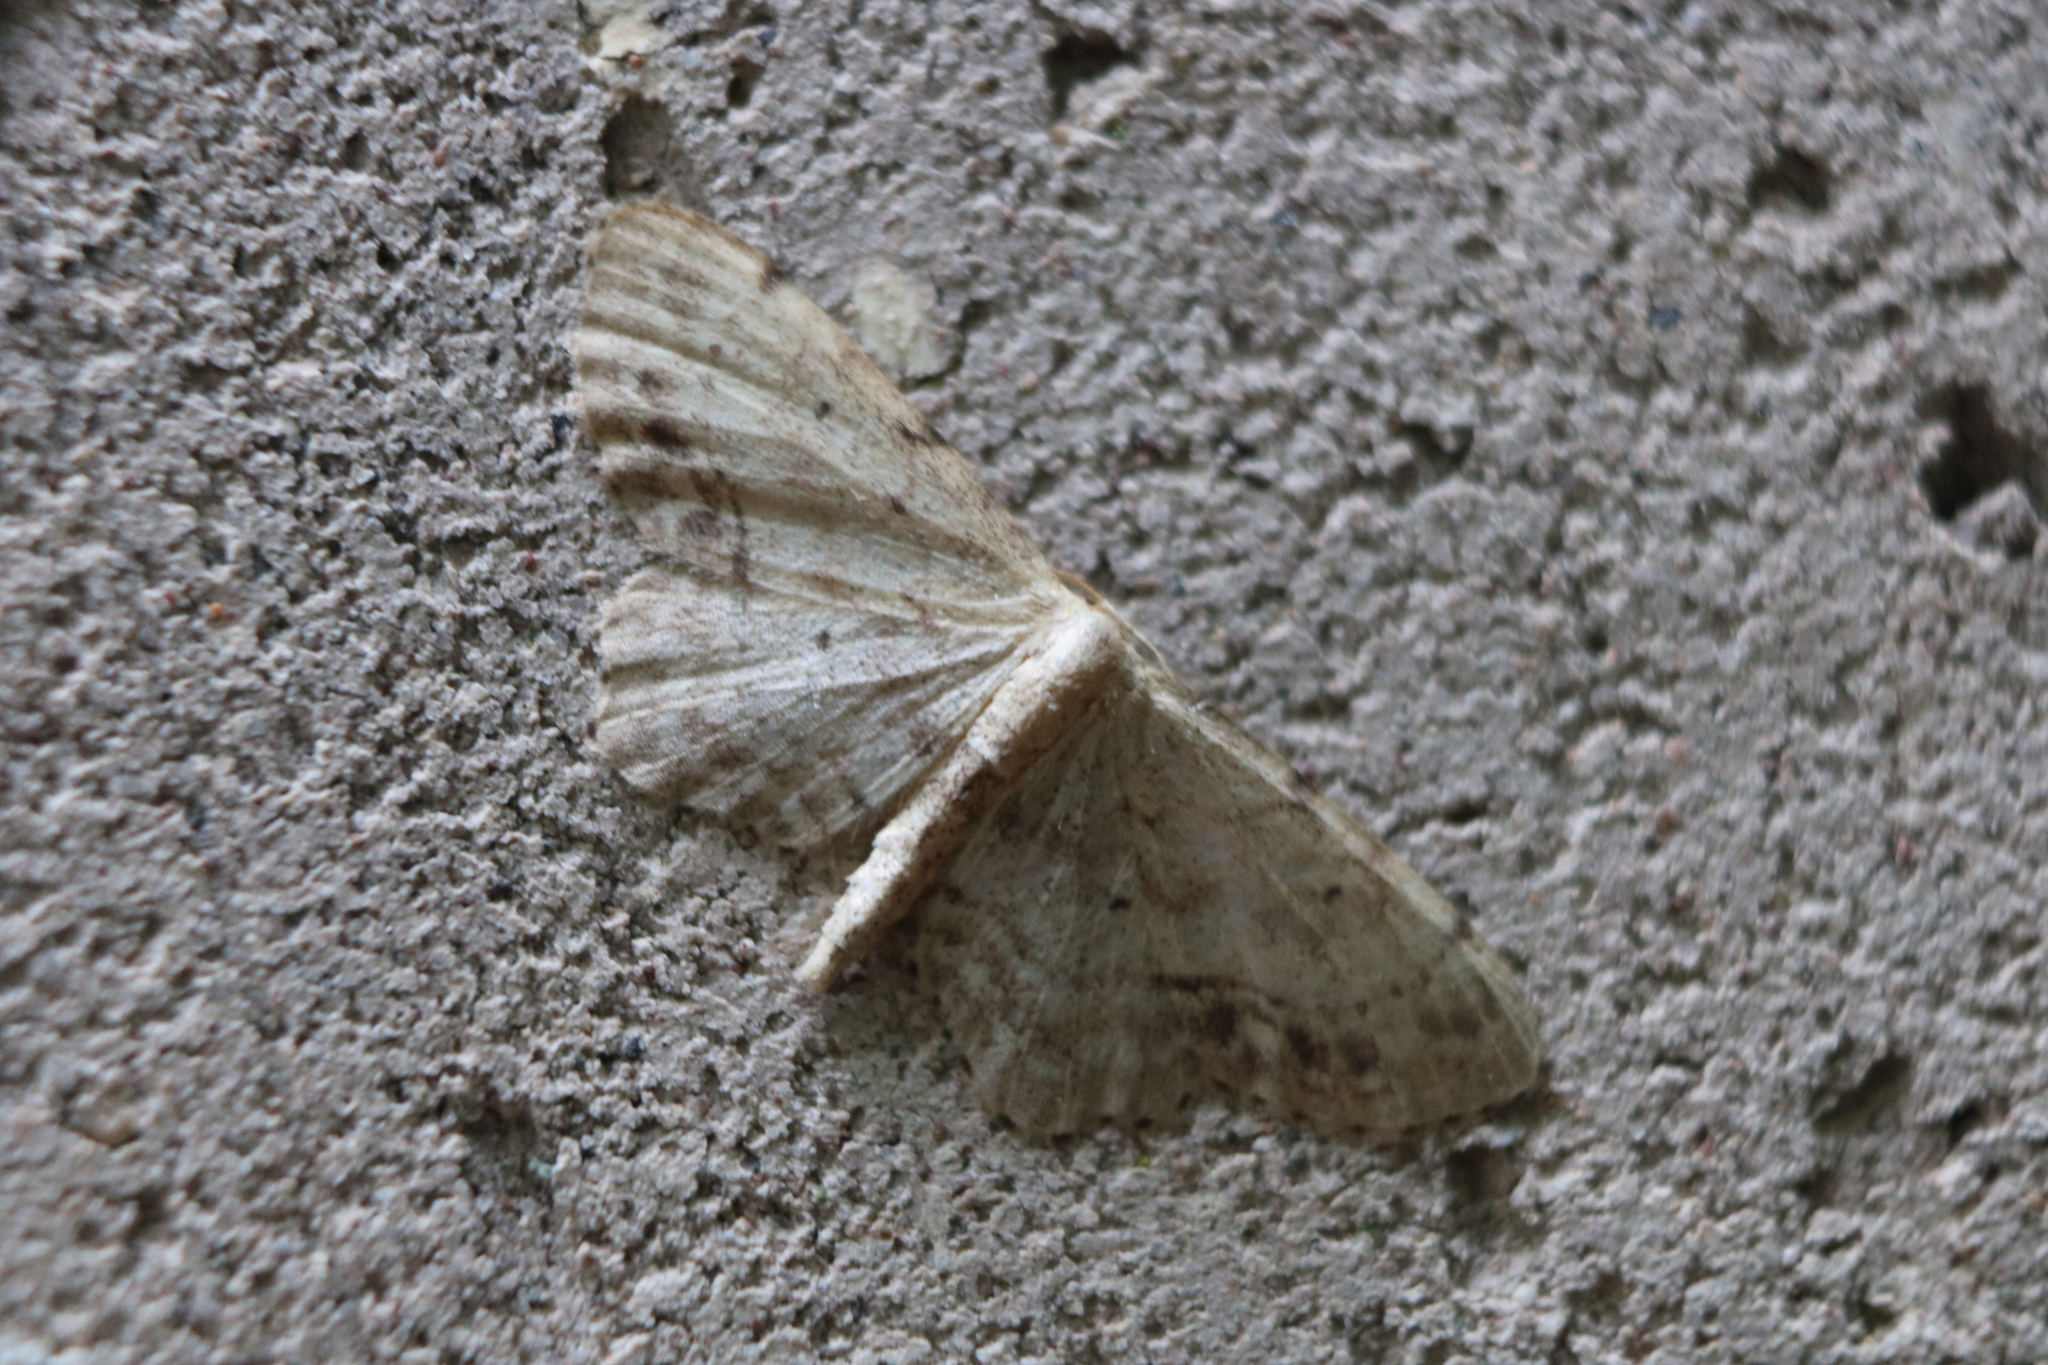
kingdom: Animalia
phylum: Arthropoda
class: Insecta
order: Lepidoptera
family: Geometridae
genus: Idaea
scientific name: Idaea dimidiata
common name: Single-dotted wave
